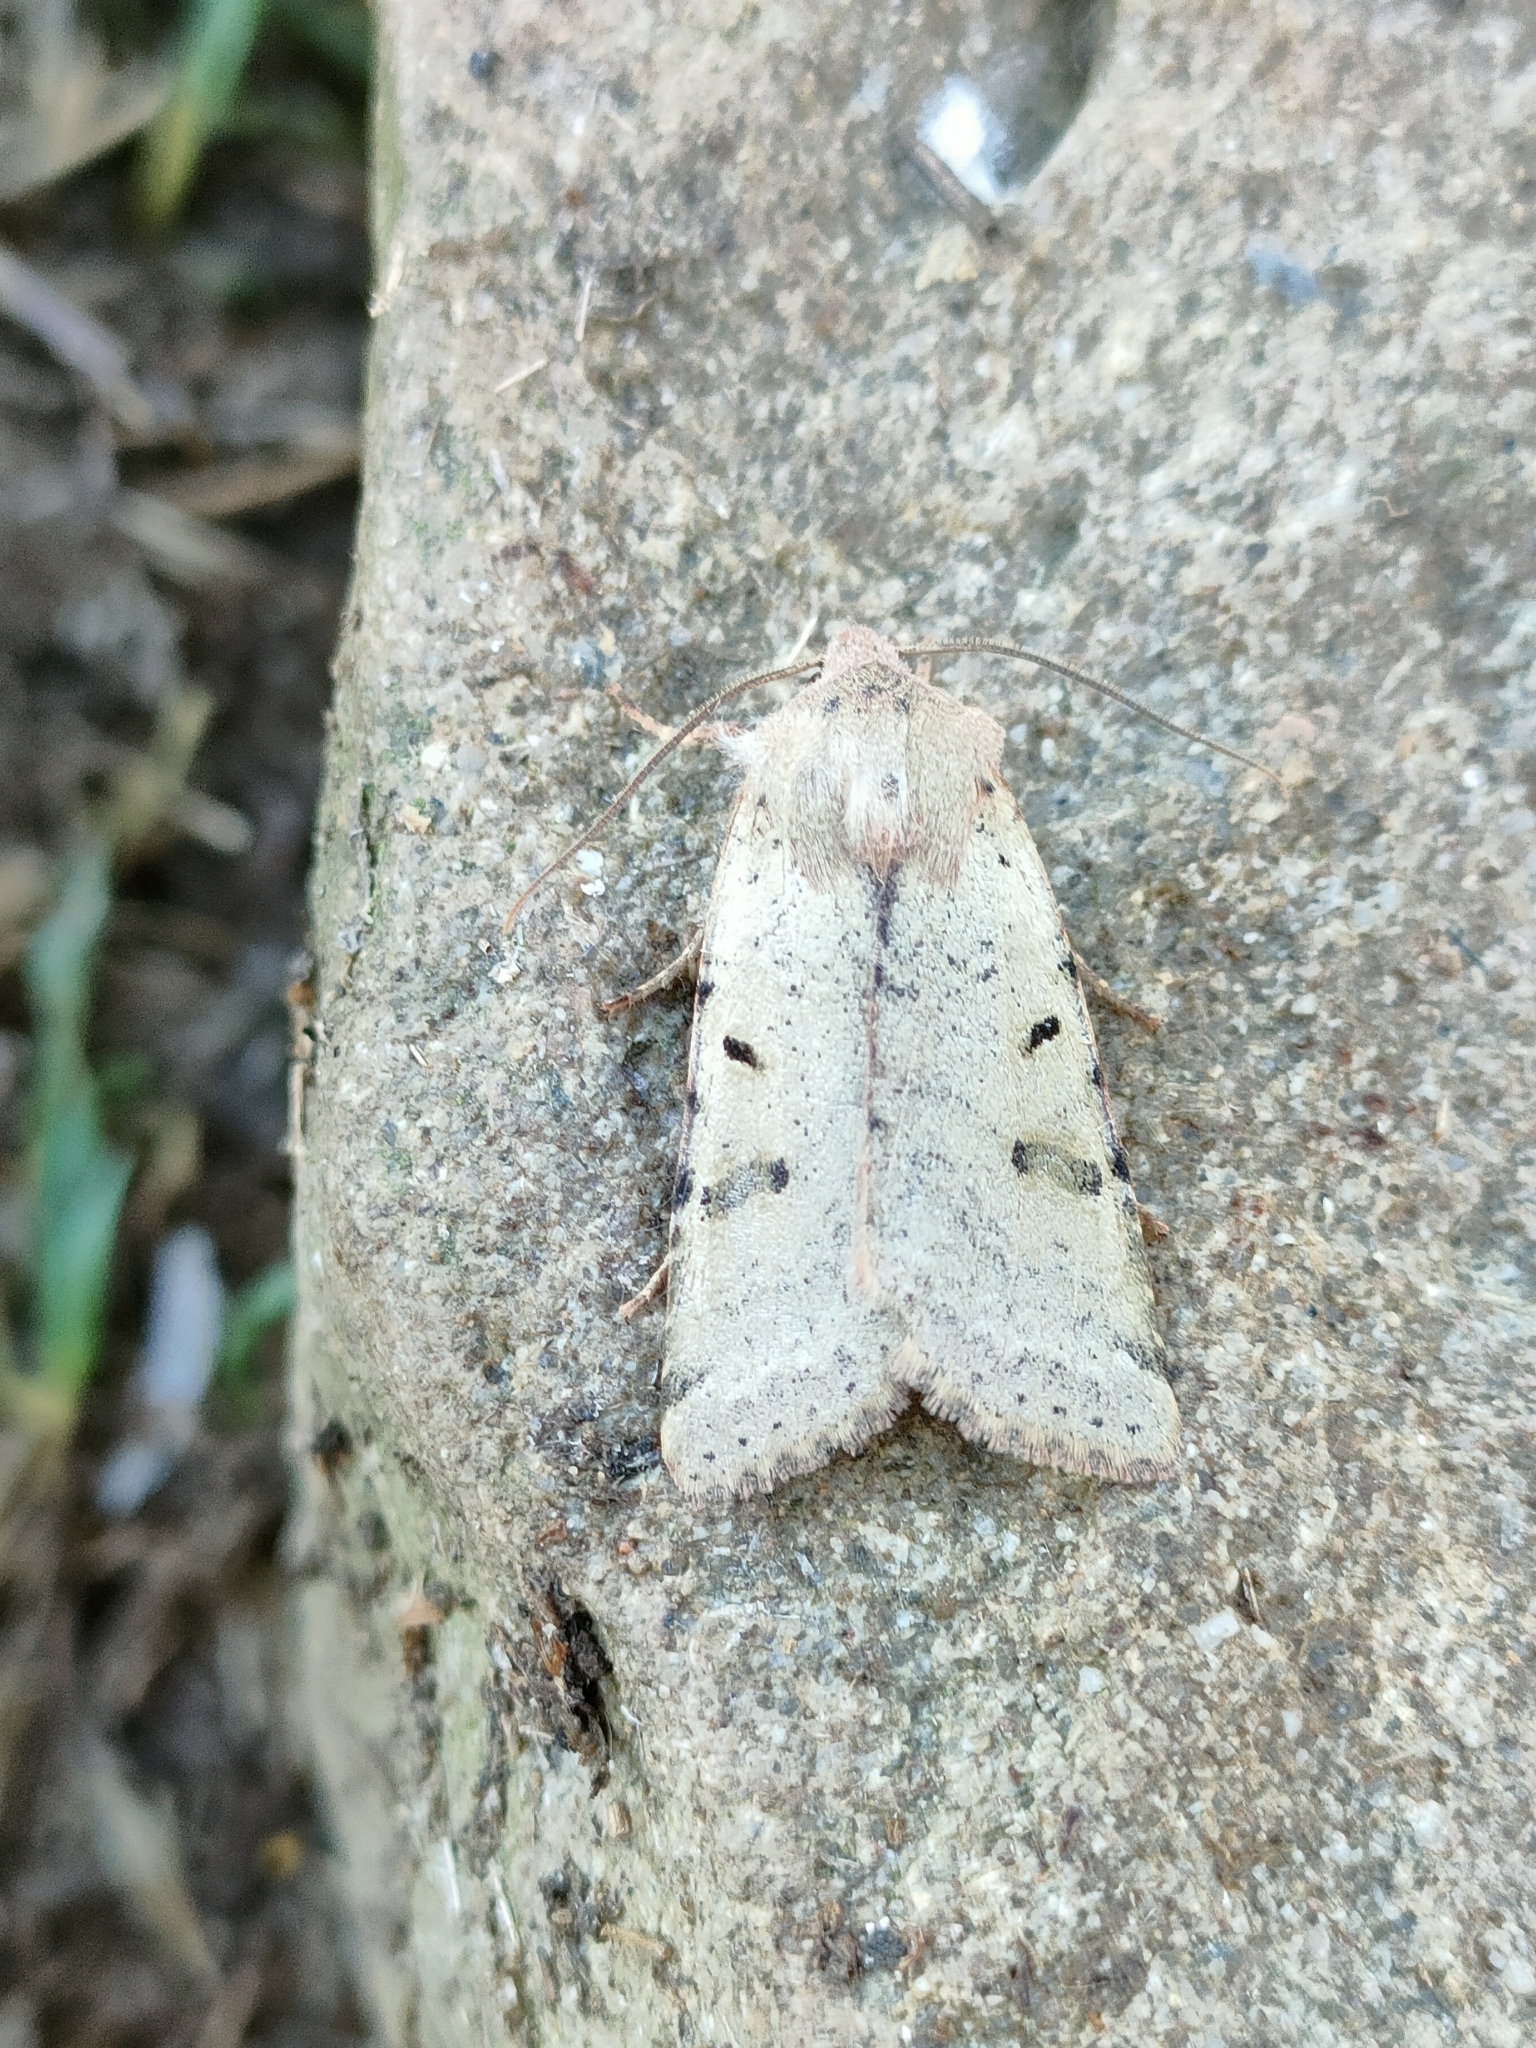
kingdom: Animalia
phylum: Arthropoda
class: Insecta
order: Lepidoptera
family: Noctuidae
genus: Agrochola
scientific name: Agrochola lychnidis
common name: Beaded chestnut
